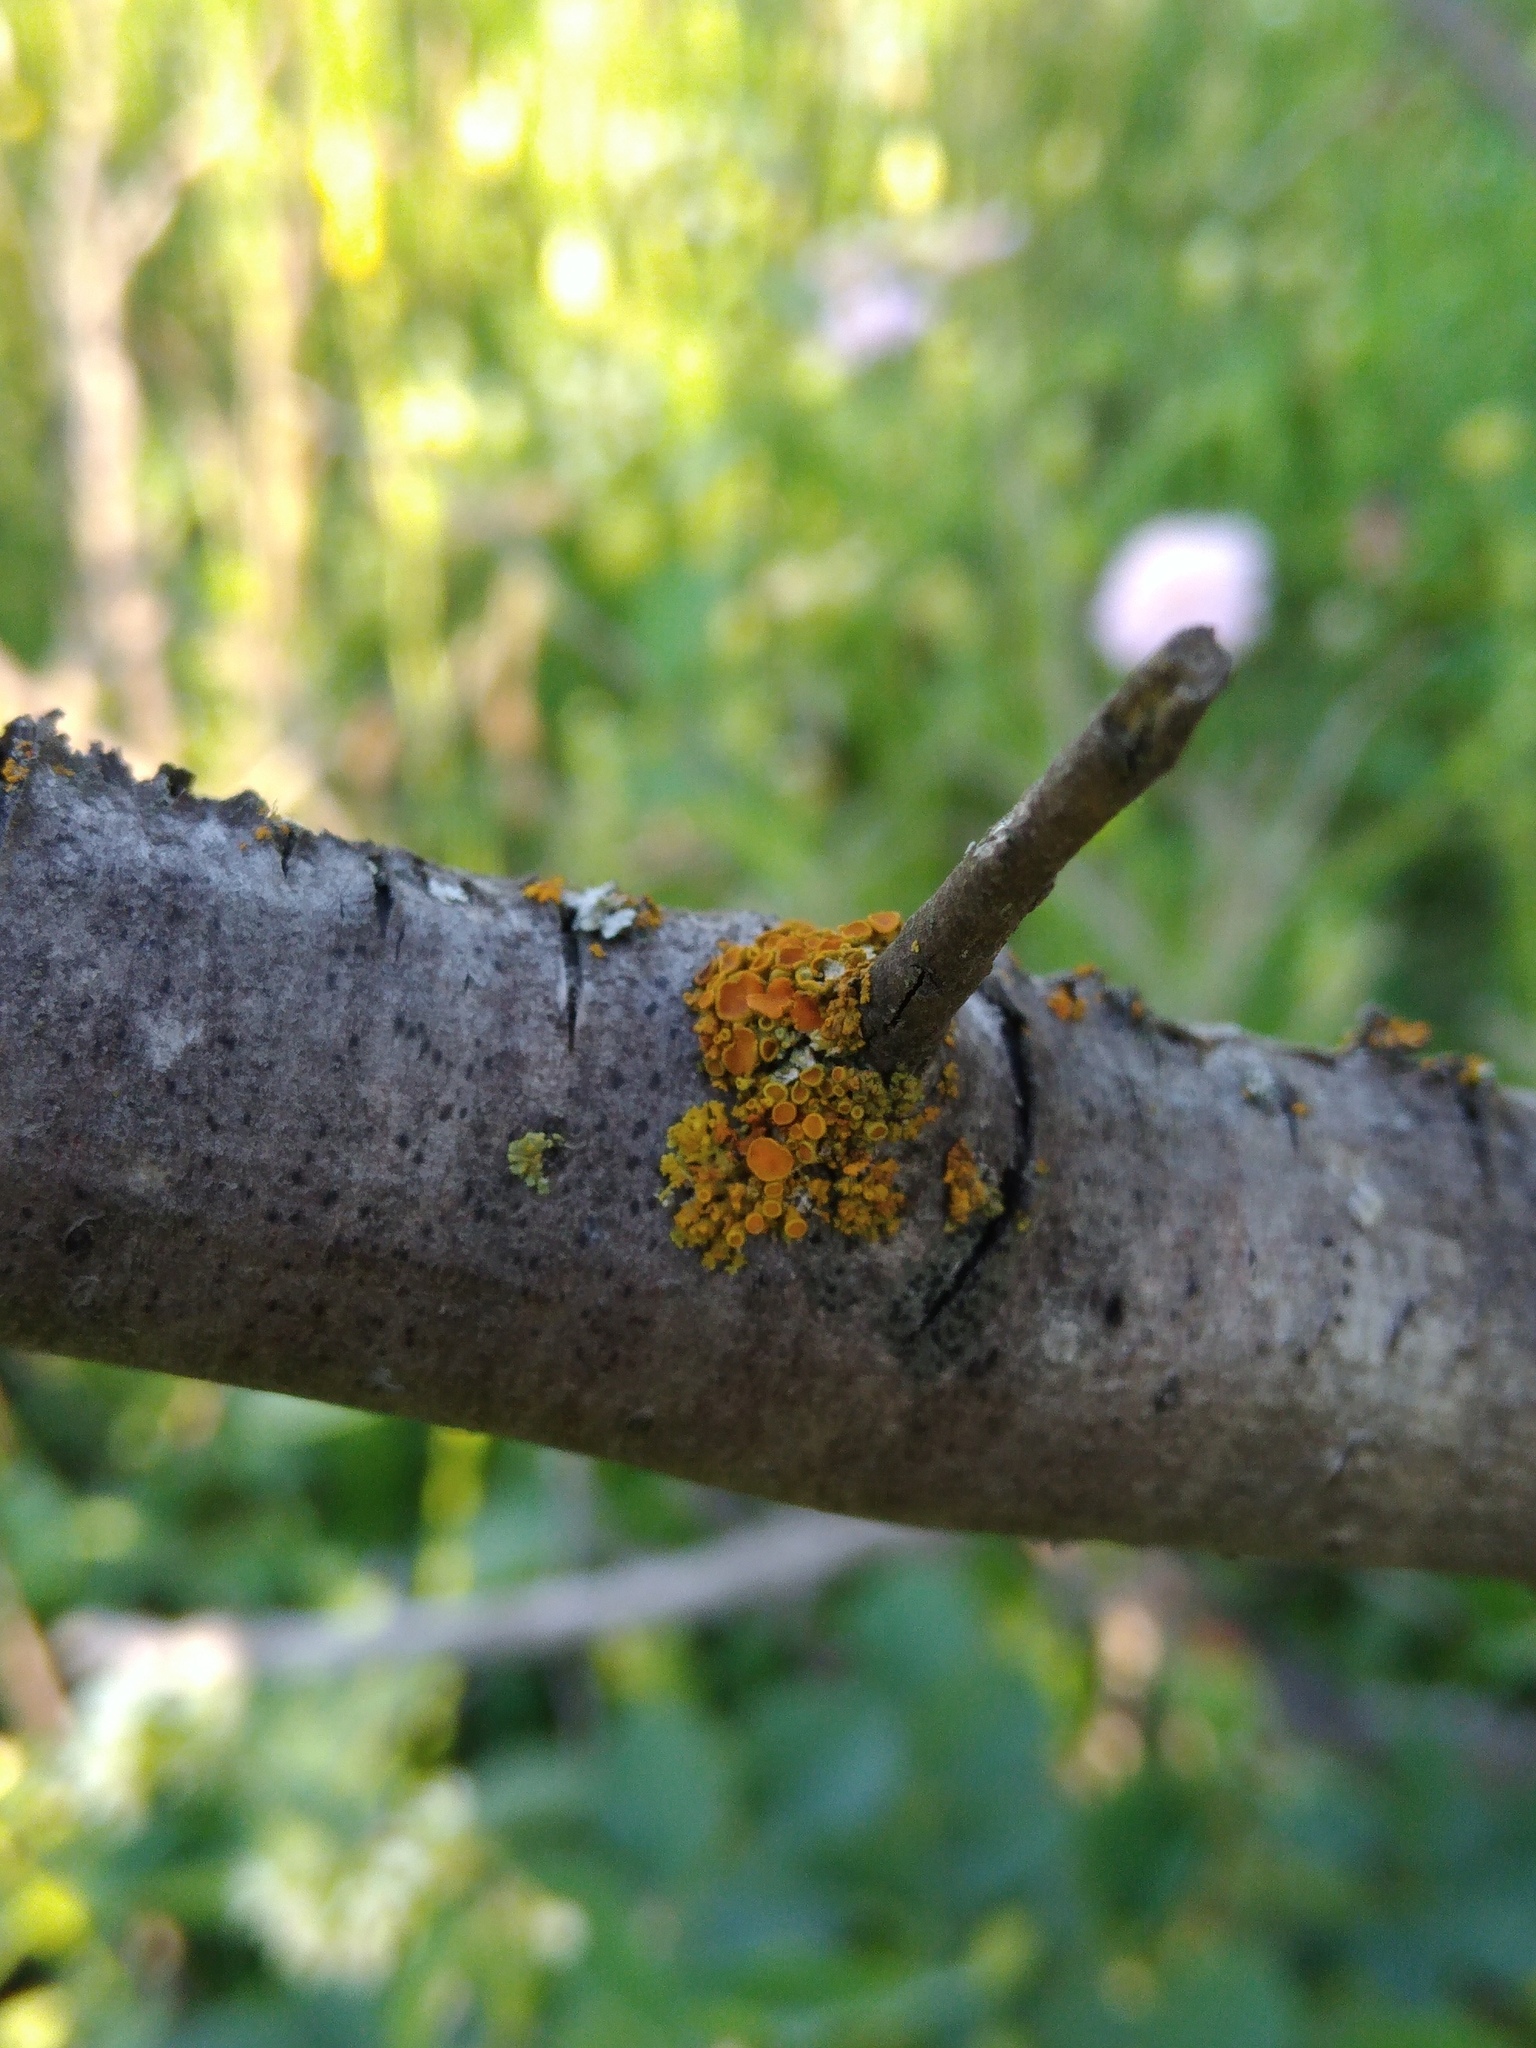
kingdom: Fungi
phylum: Ascomycota
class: Lecanoromycetes
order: Teloschistales
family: Teloschistaceae
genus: Polycauliona
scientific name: Polycauliona polycarpa
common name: Pin-cushion sunburst lichen
